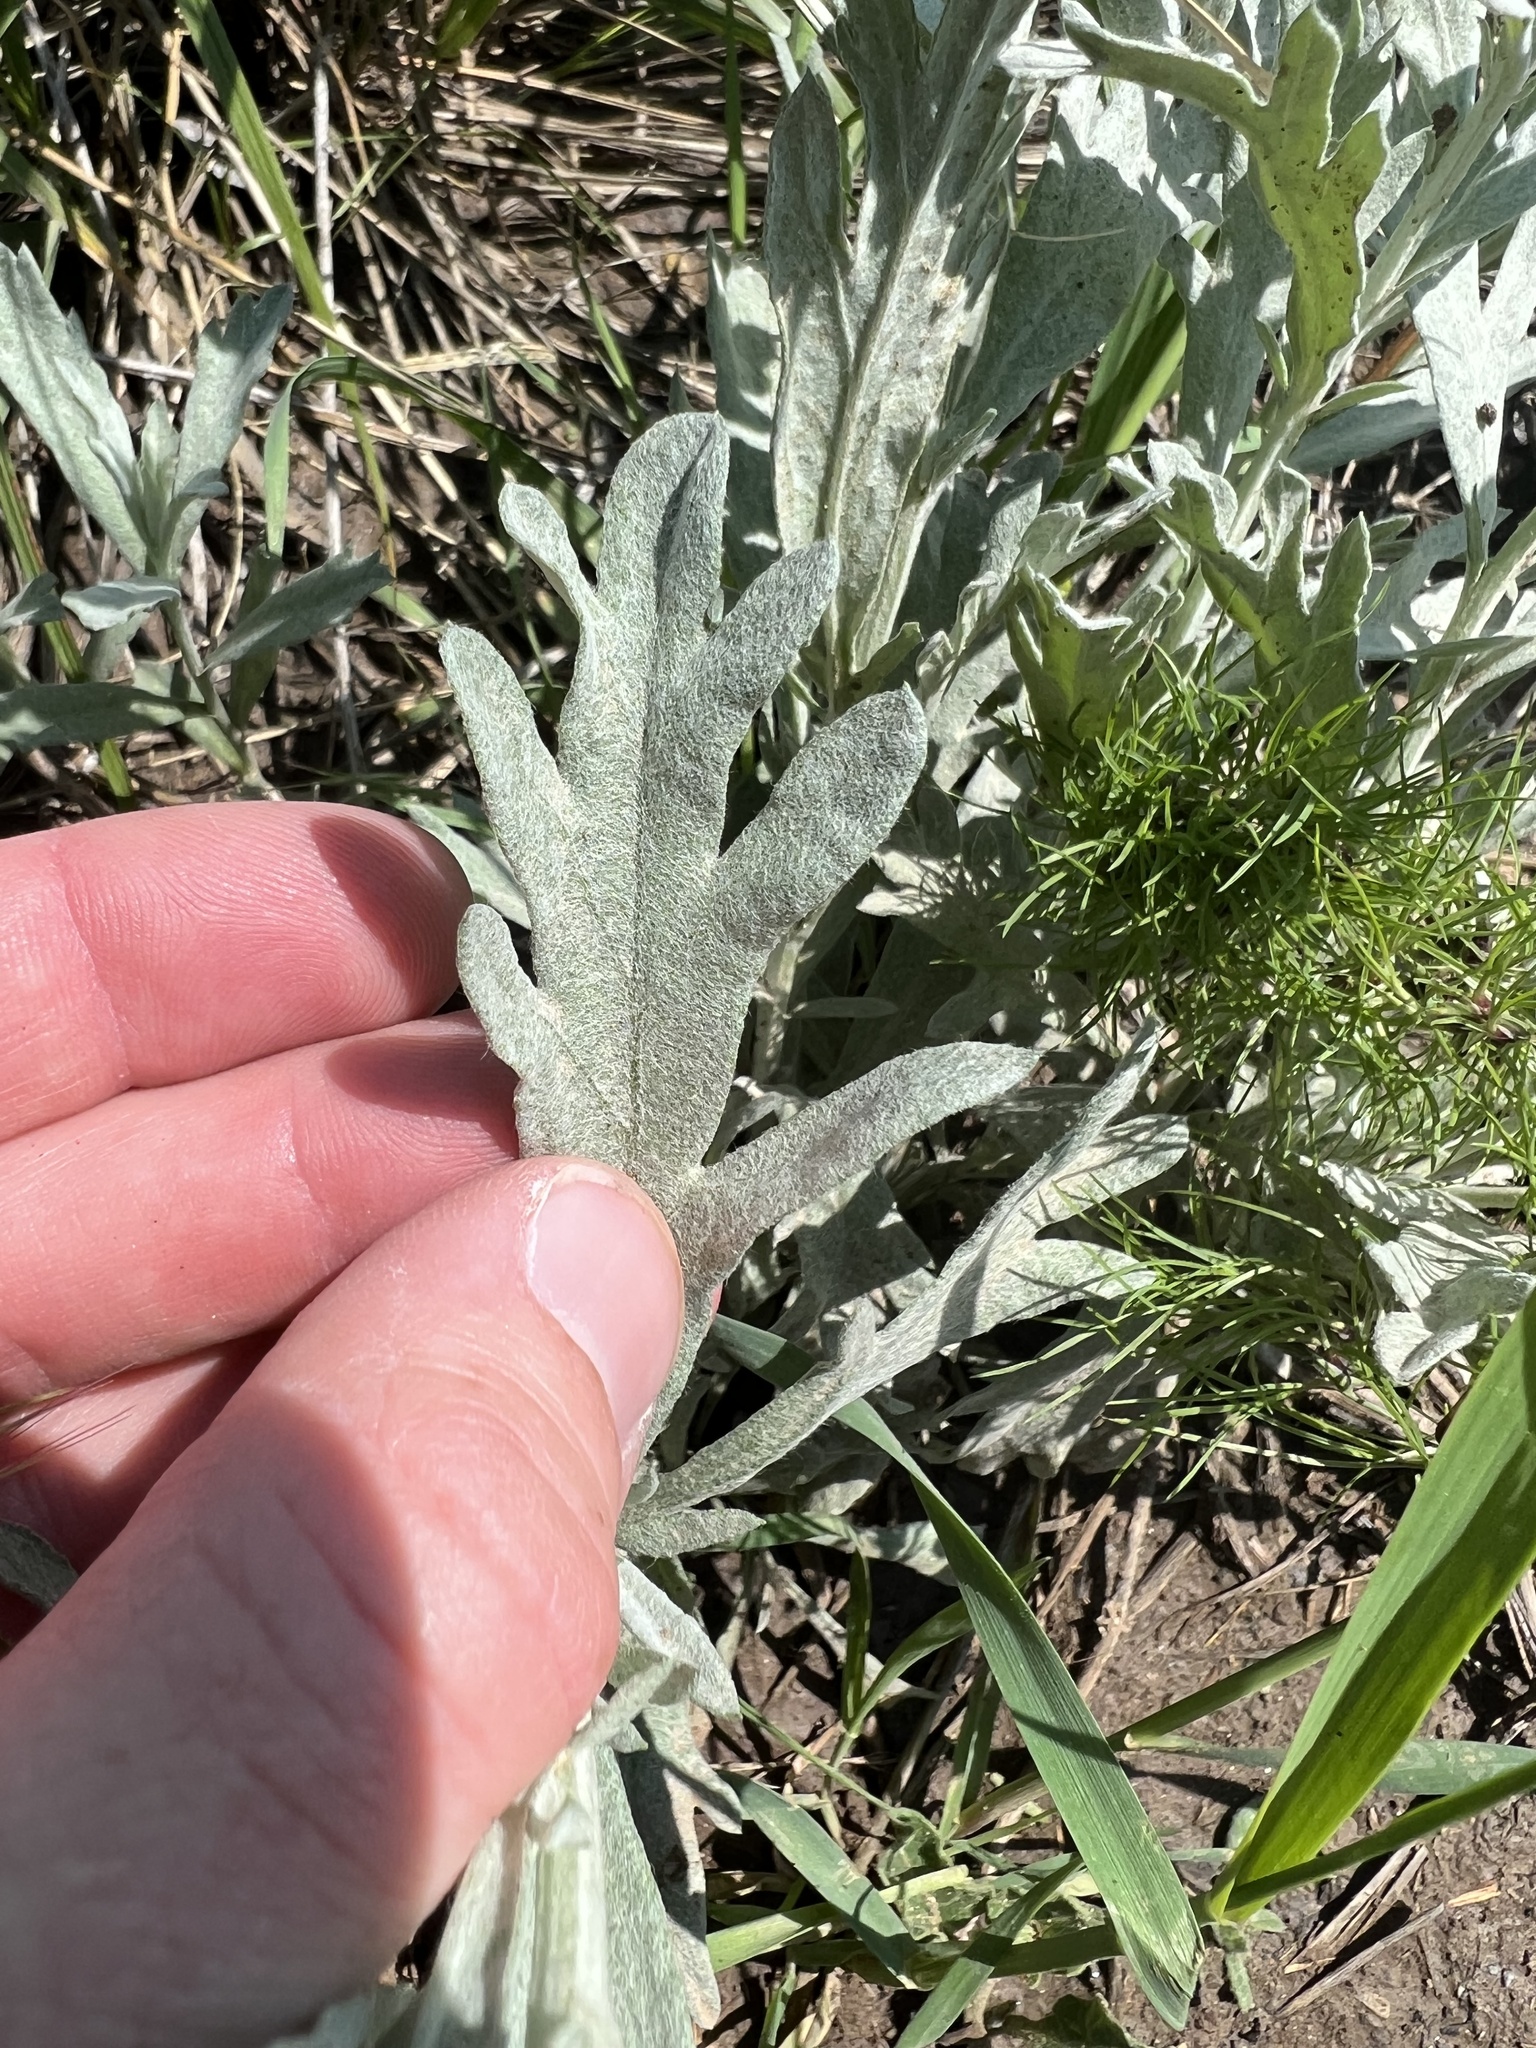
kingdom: Plantae
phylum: Tracheophyta
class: Magnoliopsida
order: Asterales
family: Asteraceae
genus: Artemisia
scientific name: Artemisia ludoviciana
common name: Western mugwort
